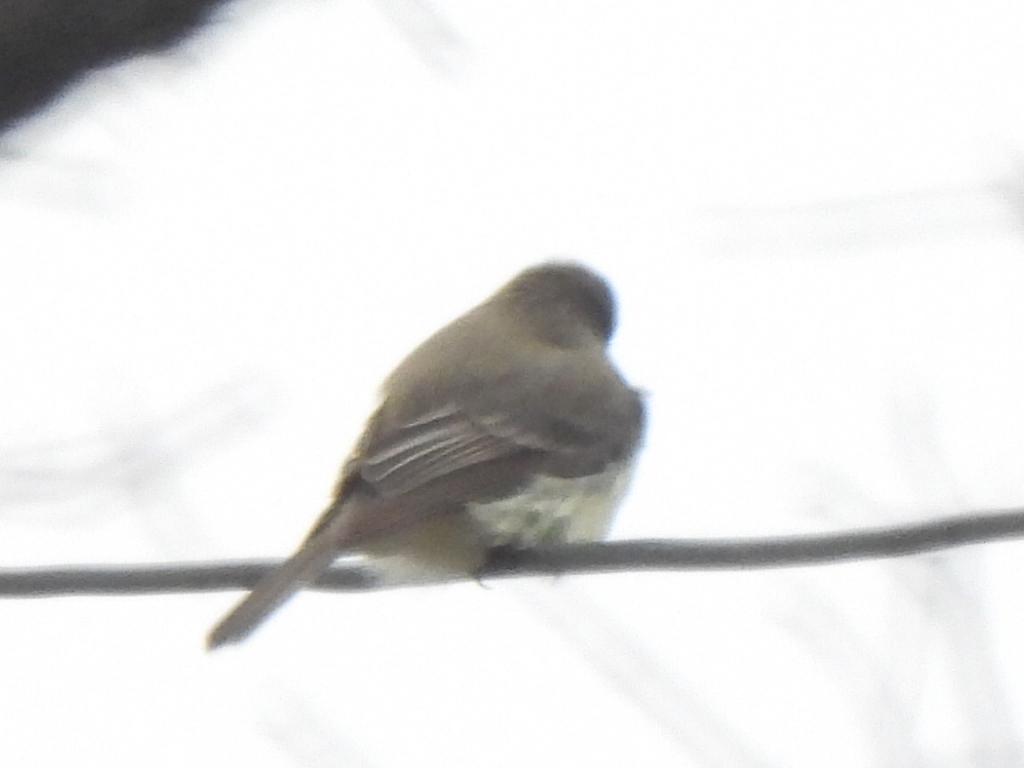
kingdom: Animalia
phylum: Chordata
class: Aves
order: Passeriformes
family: Tyrannidae
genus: Sayornis
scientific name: Sayornis phoebe
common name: Eastern phoebe
